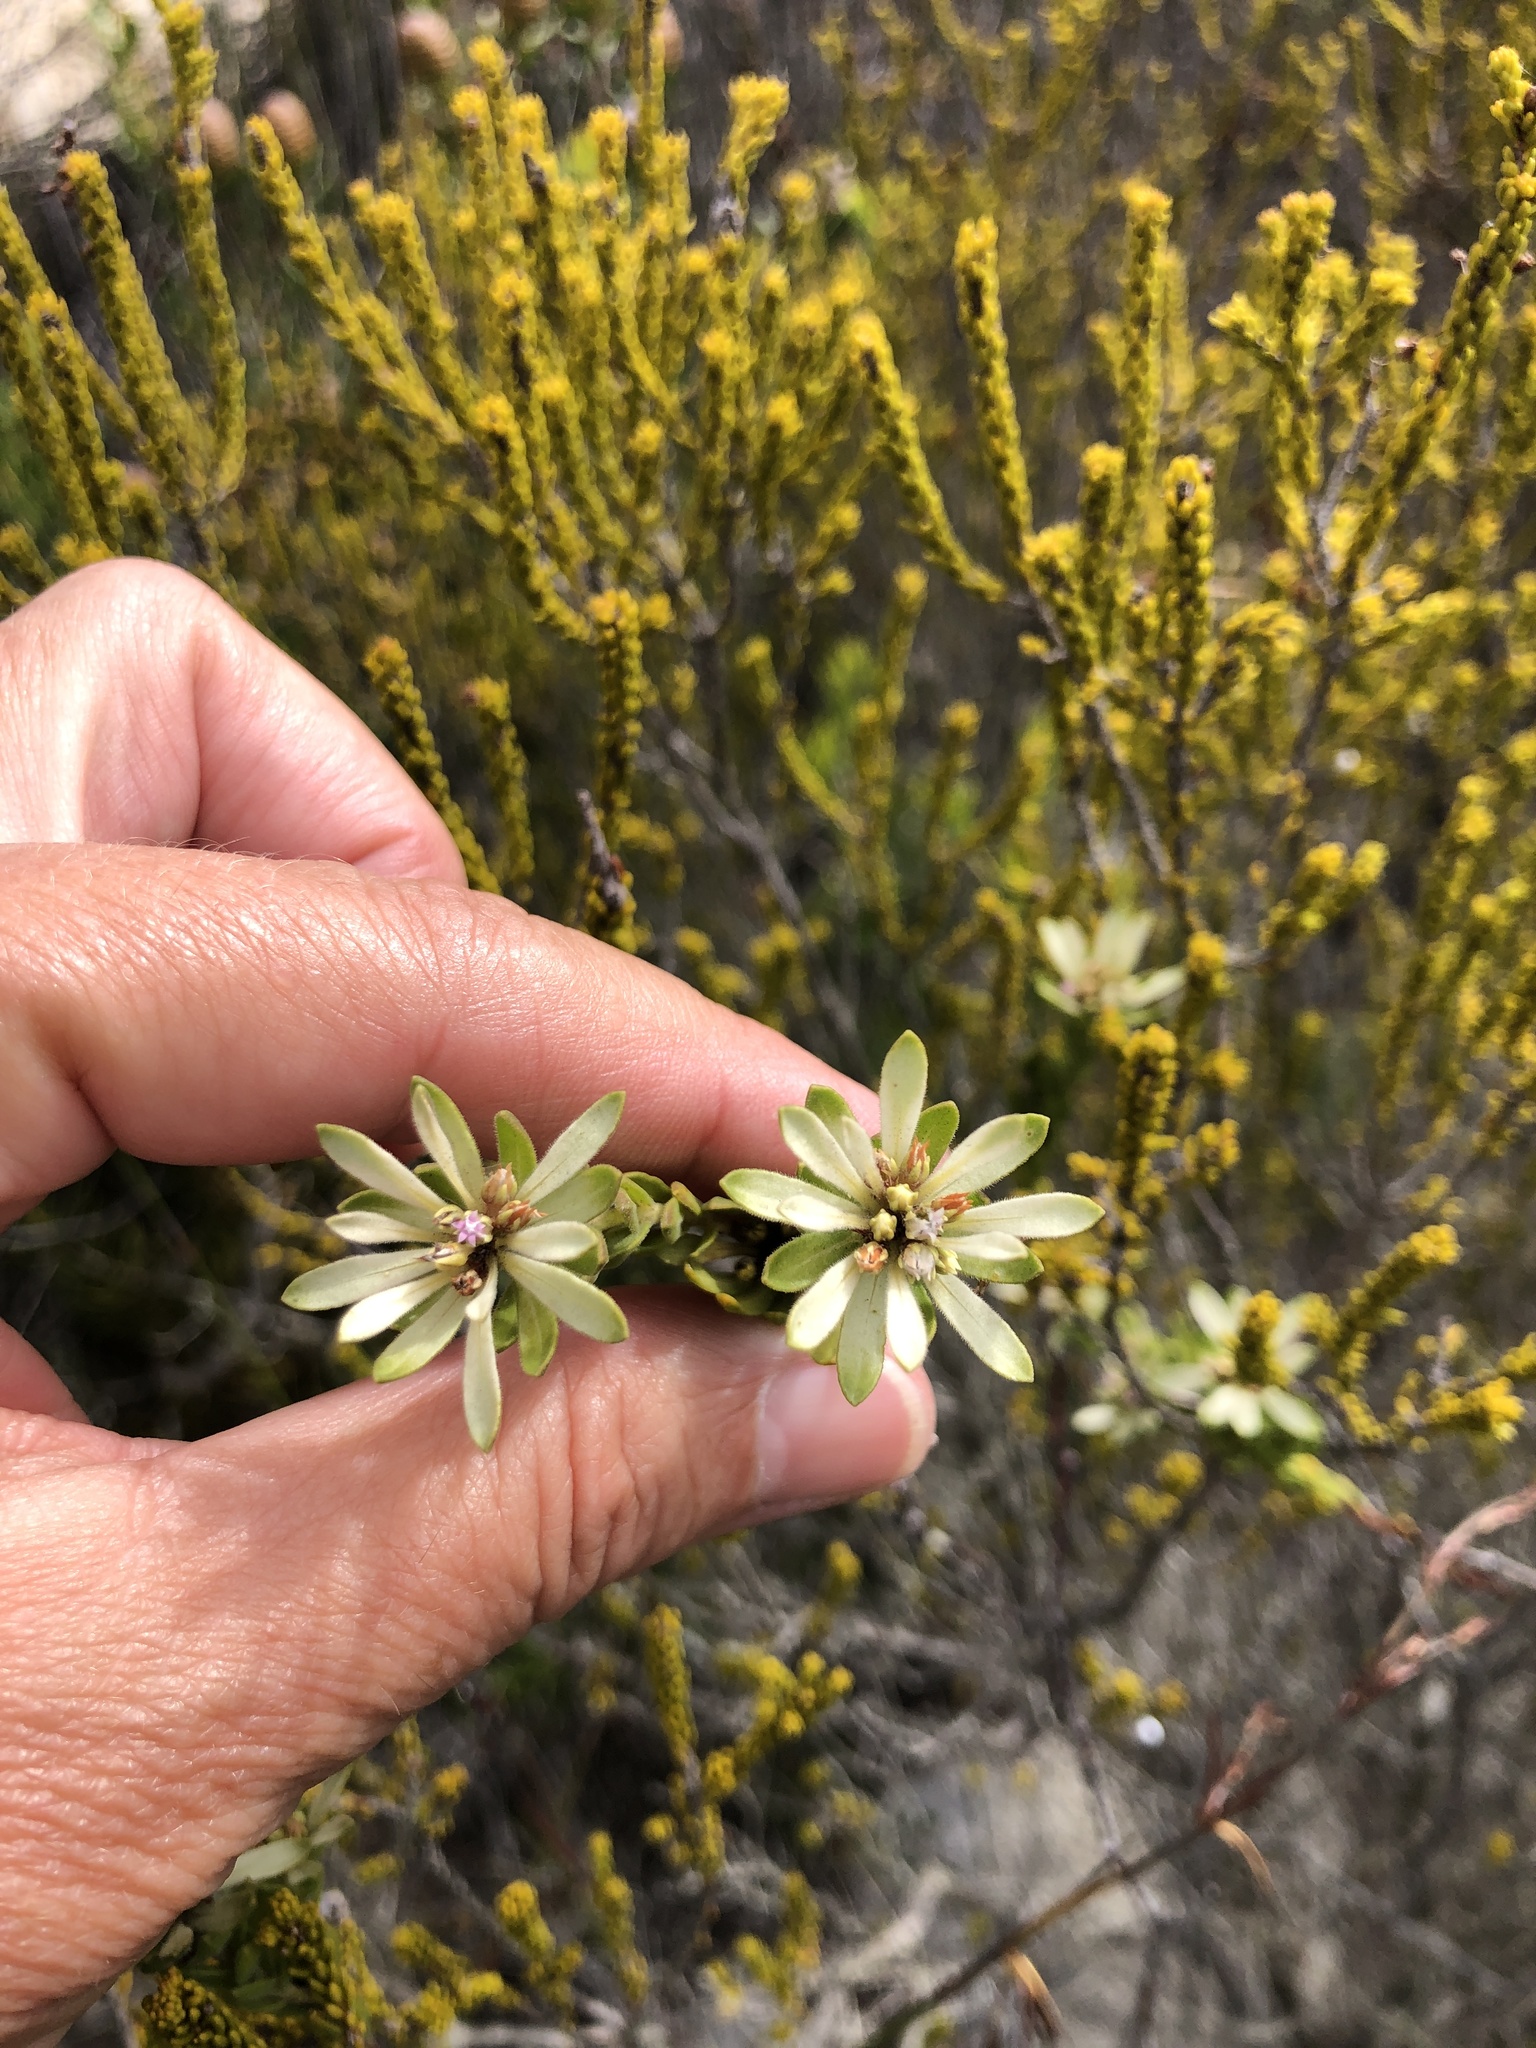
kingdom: Plantae
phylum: Tracheophyta
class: Magnoliopsida
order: Sapindales
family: Rutaceae
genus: Euchaetis
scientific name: Euchaetis longibracteata
